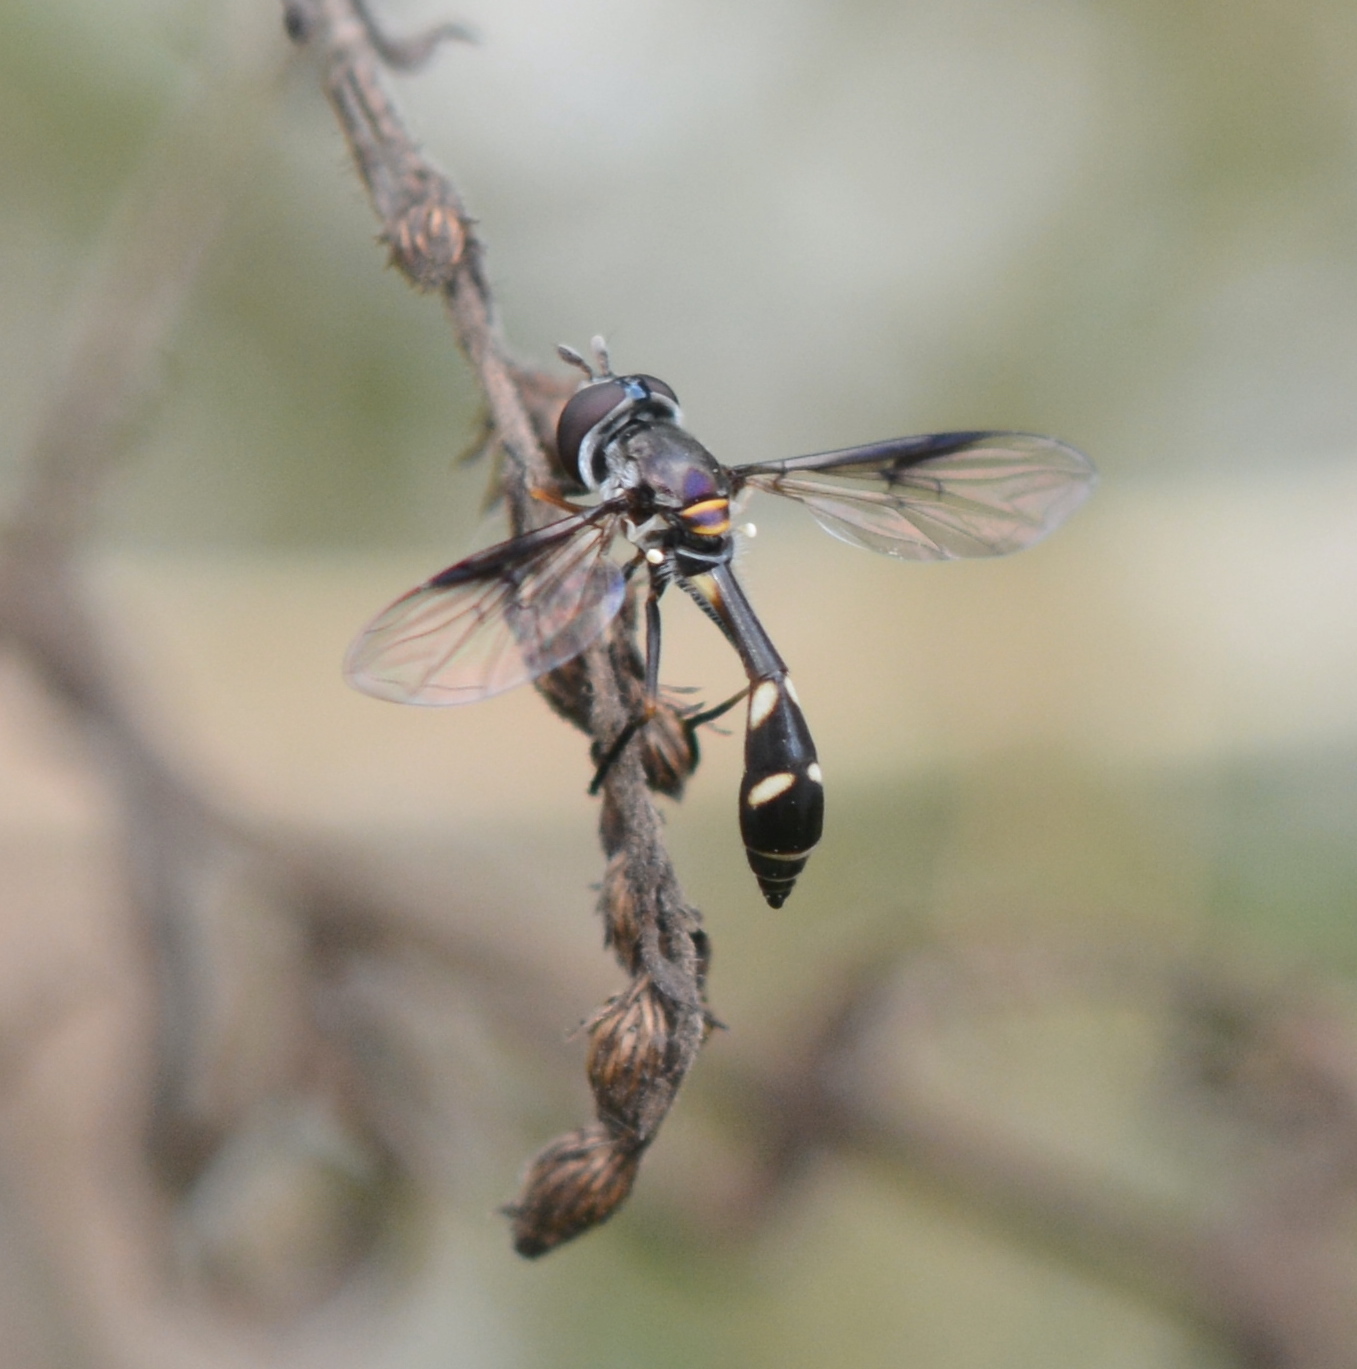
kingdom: Animalia
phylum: Arthropoda
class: Insecta
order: Diptera
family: Syrphidae
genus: Dioprosopa
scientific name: Dioprosopa clavatus
